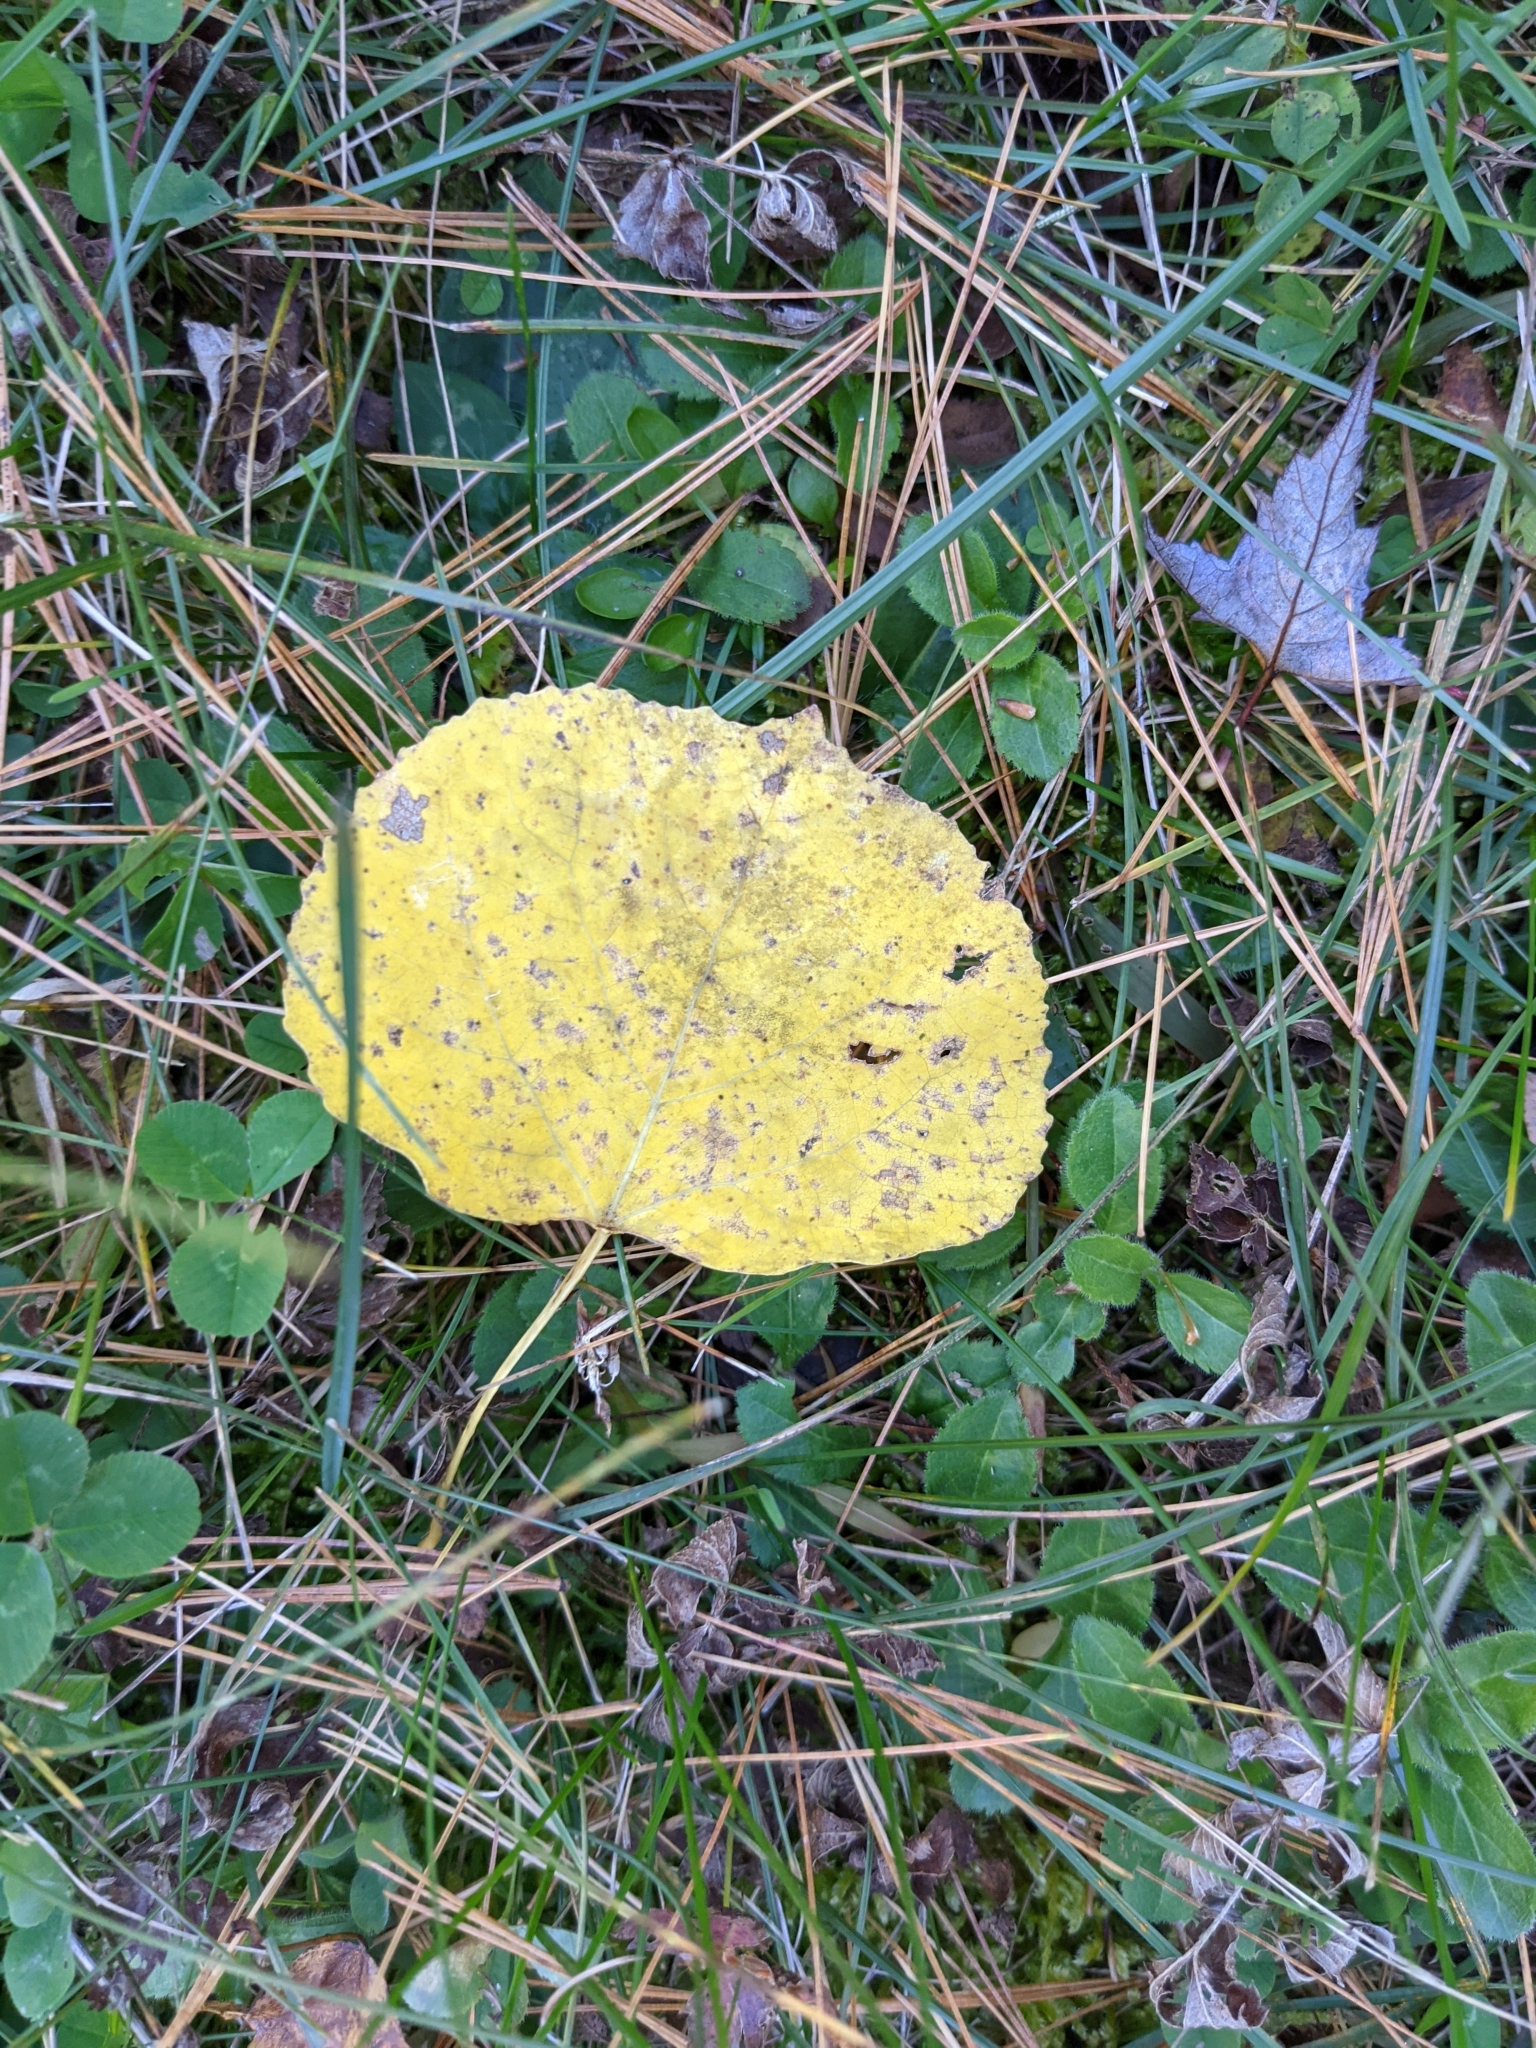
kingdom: Plantae
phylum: Tracheophyta
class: Magnoliopsida
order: Malpighiales
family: Salicaceae
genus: Populus
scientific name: Populus tremuloides
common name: Quaking aspen
